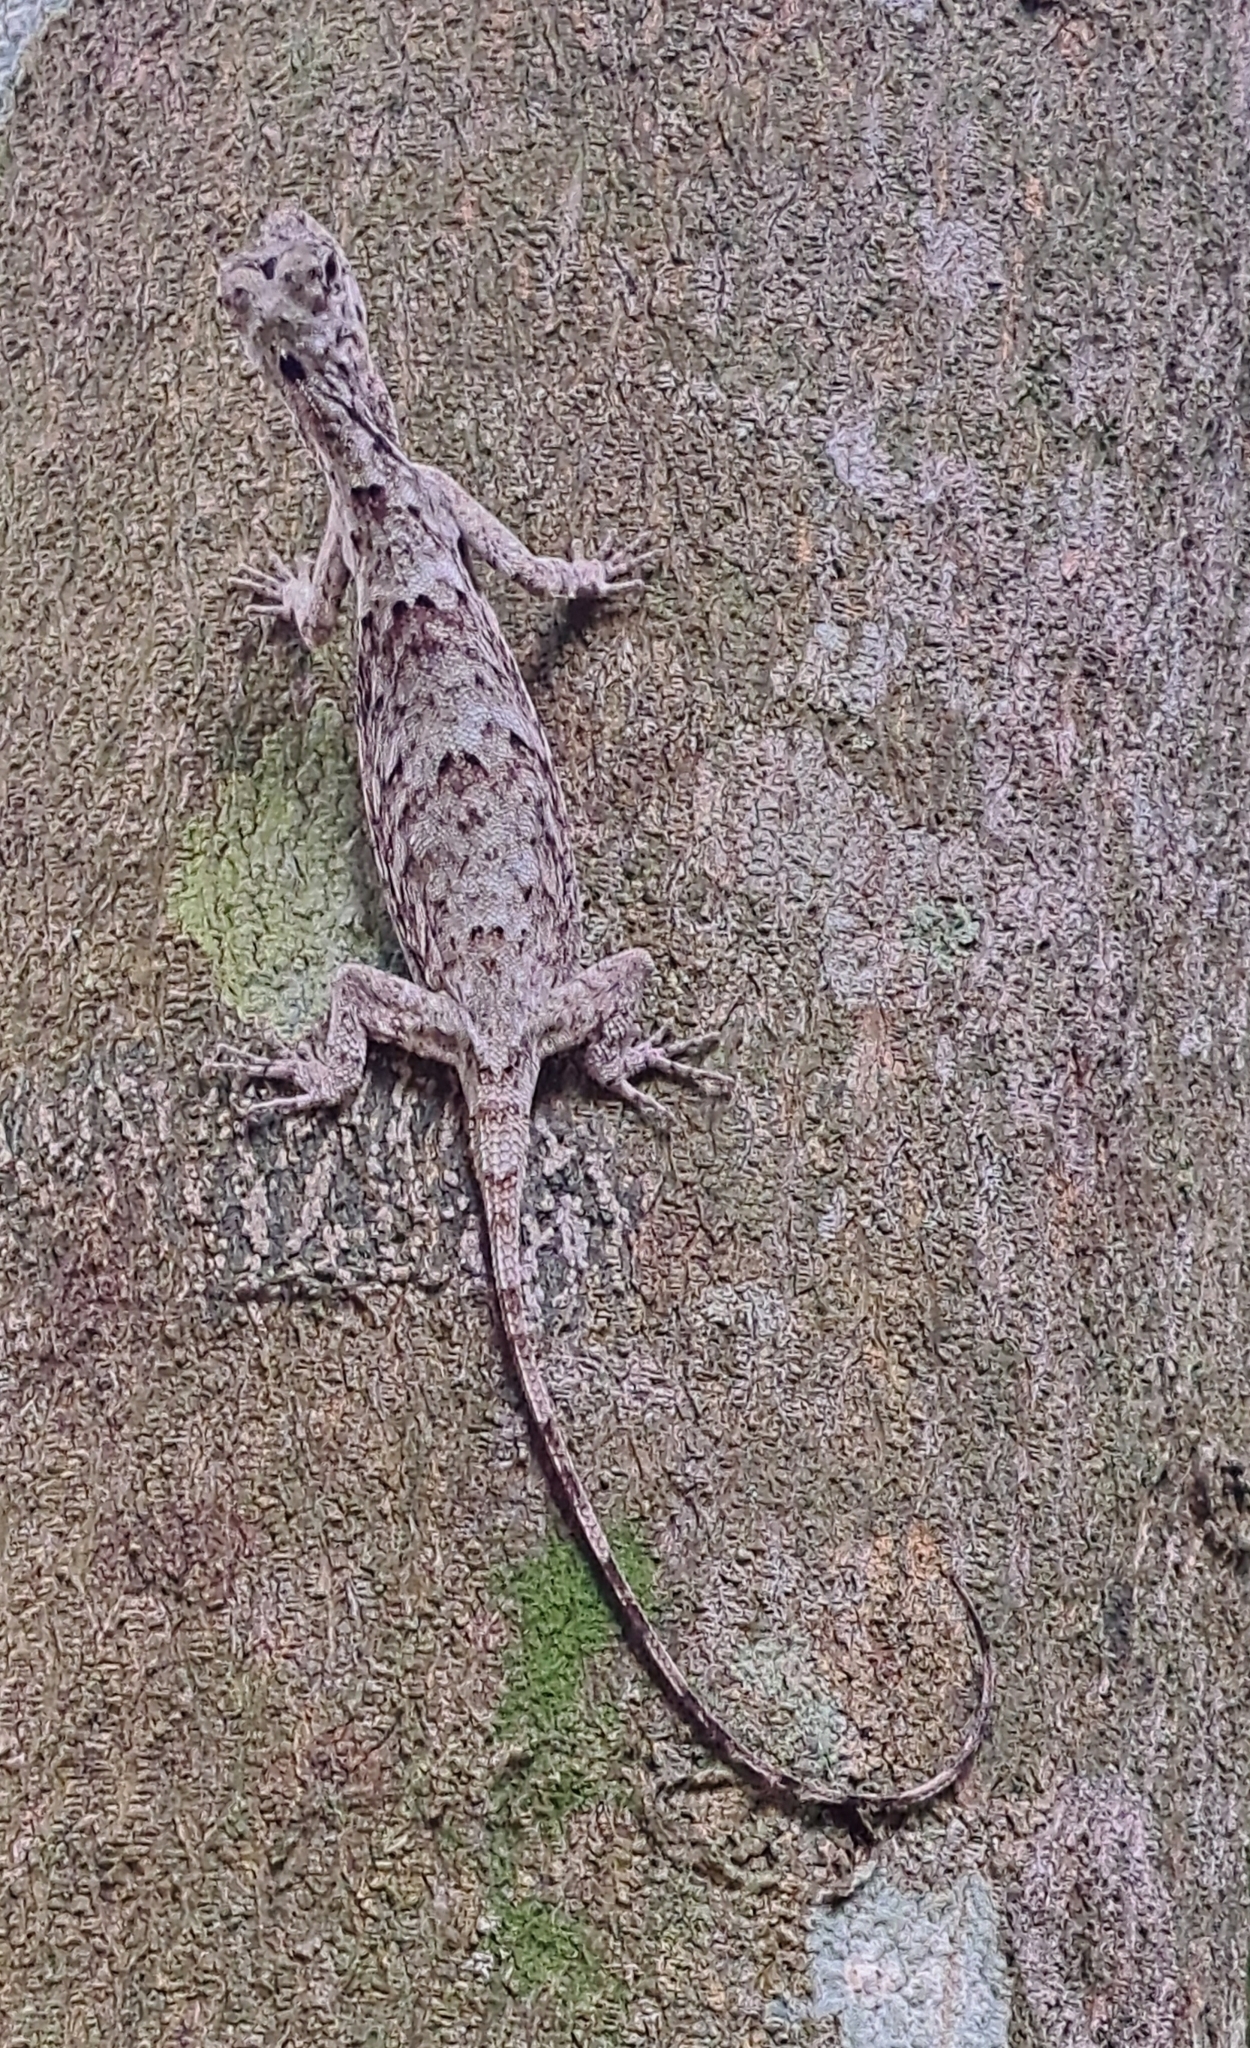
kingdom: Animalia
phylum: Chordata
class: Squamata
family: Agamidae
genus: Draco
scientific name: Draco sumatranus
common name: Common gliding lizard
